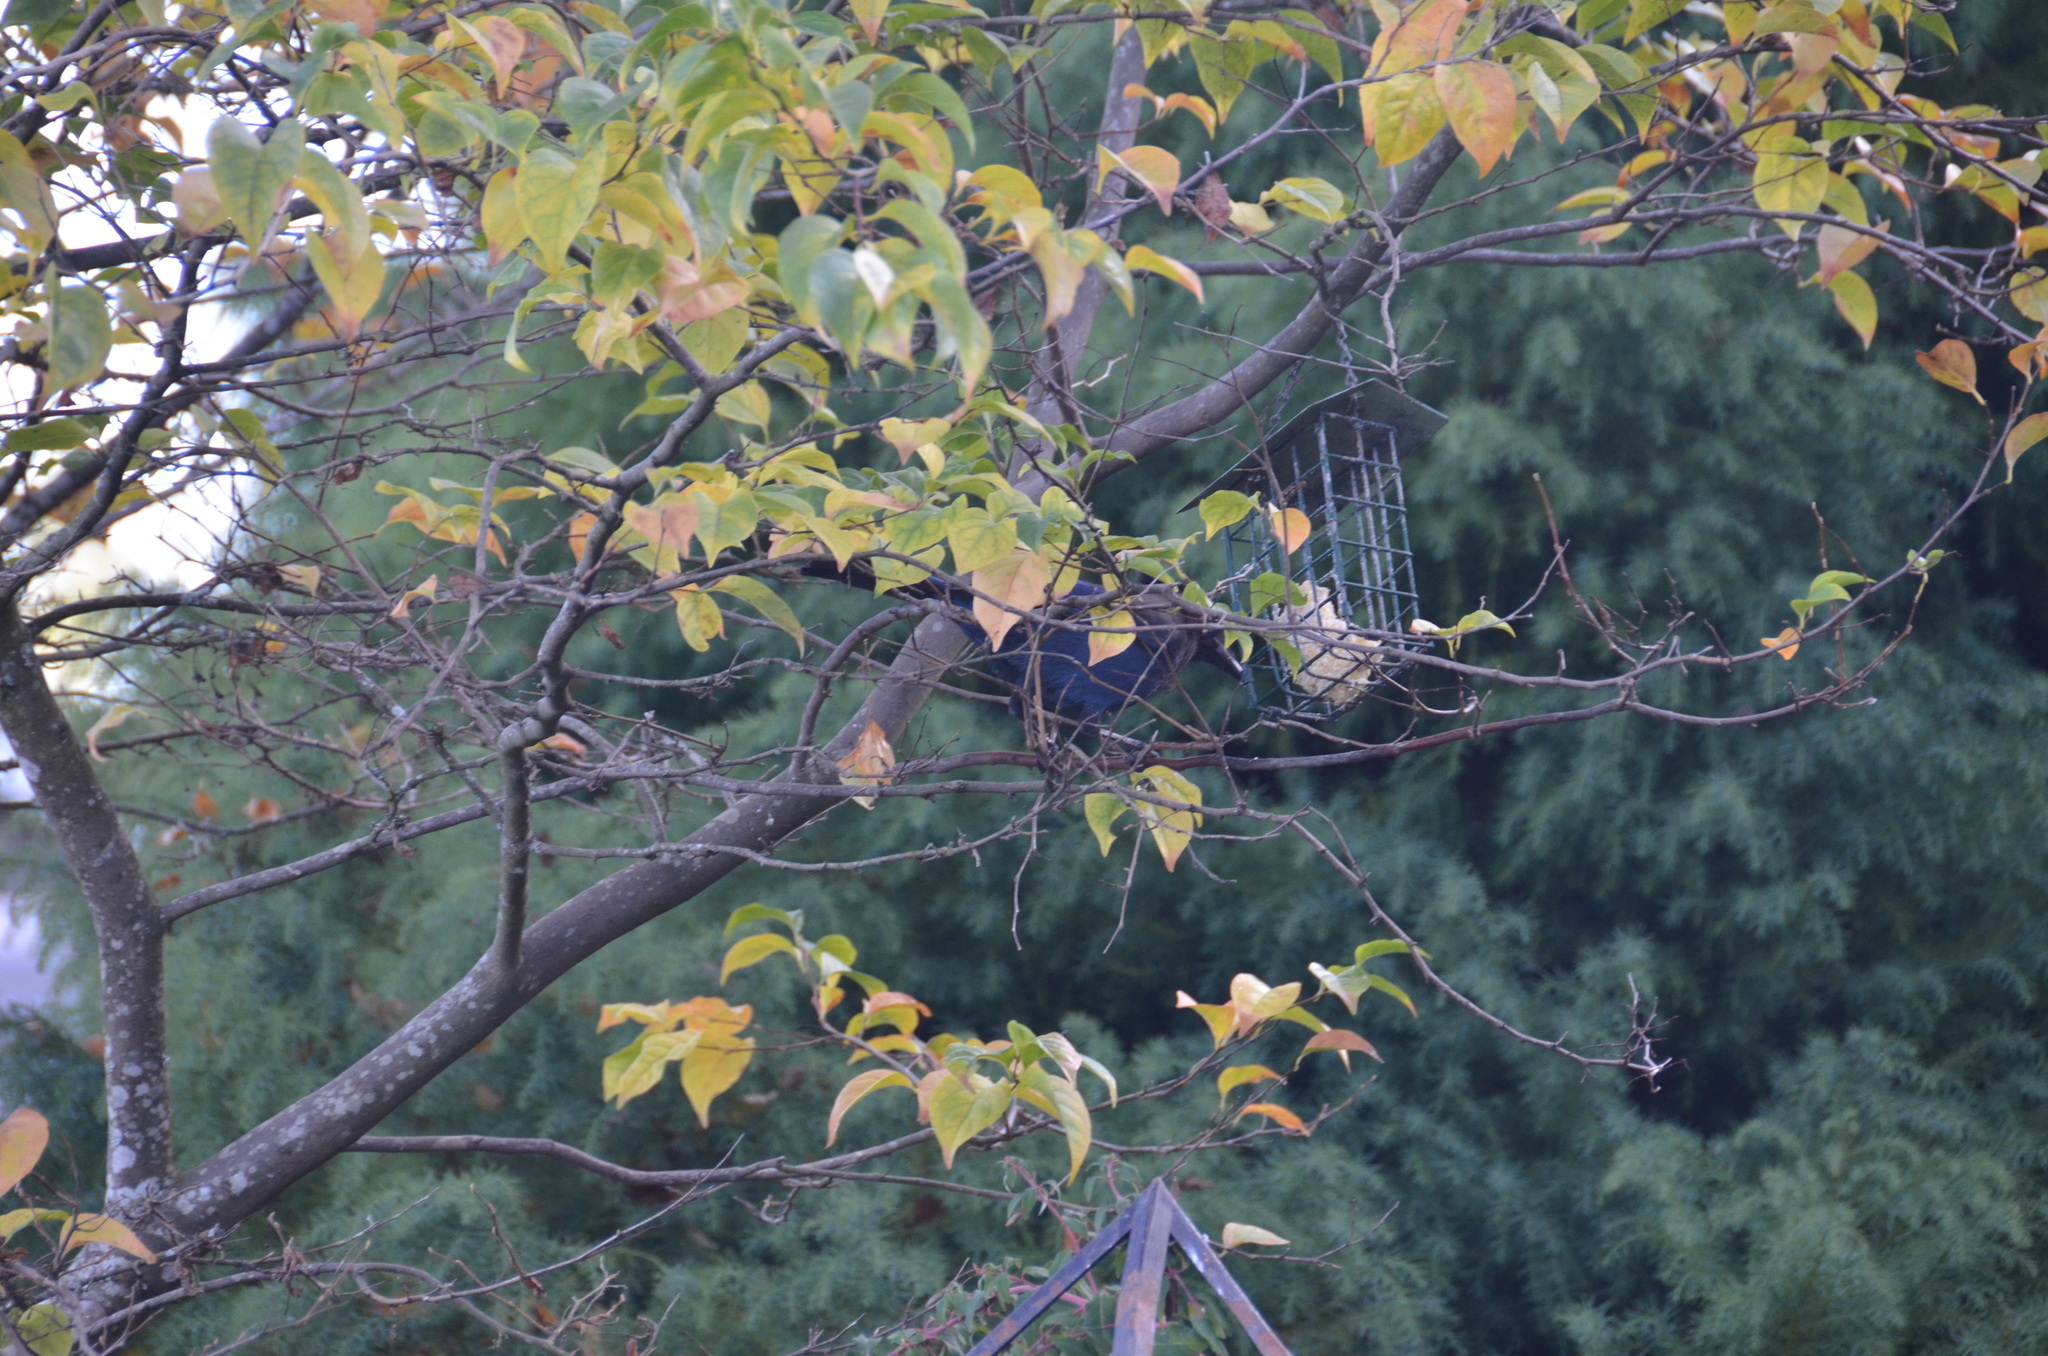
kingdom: Animalia
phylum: Chordata
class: Aves
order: Passeriformes
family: Corvidae
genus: Cyanocitta
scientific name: Cyanocitta stelleri
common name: Steller's jay
